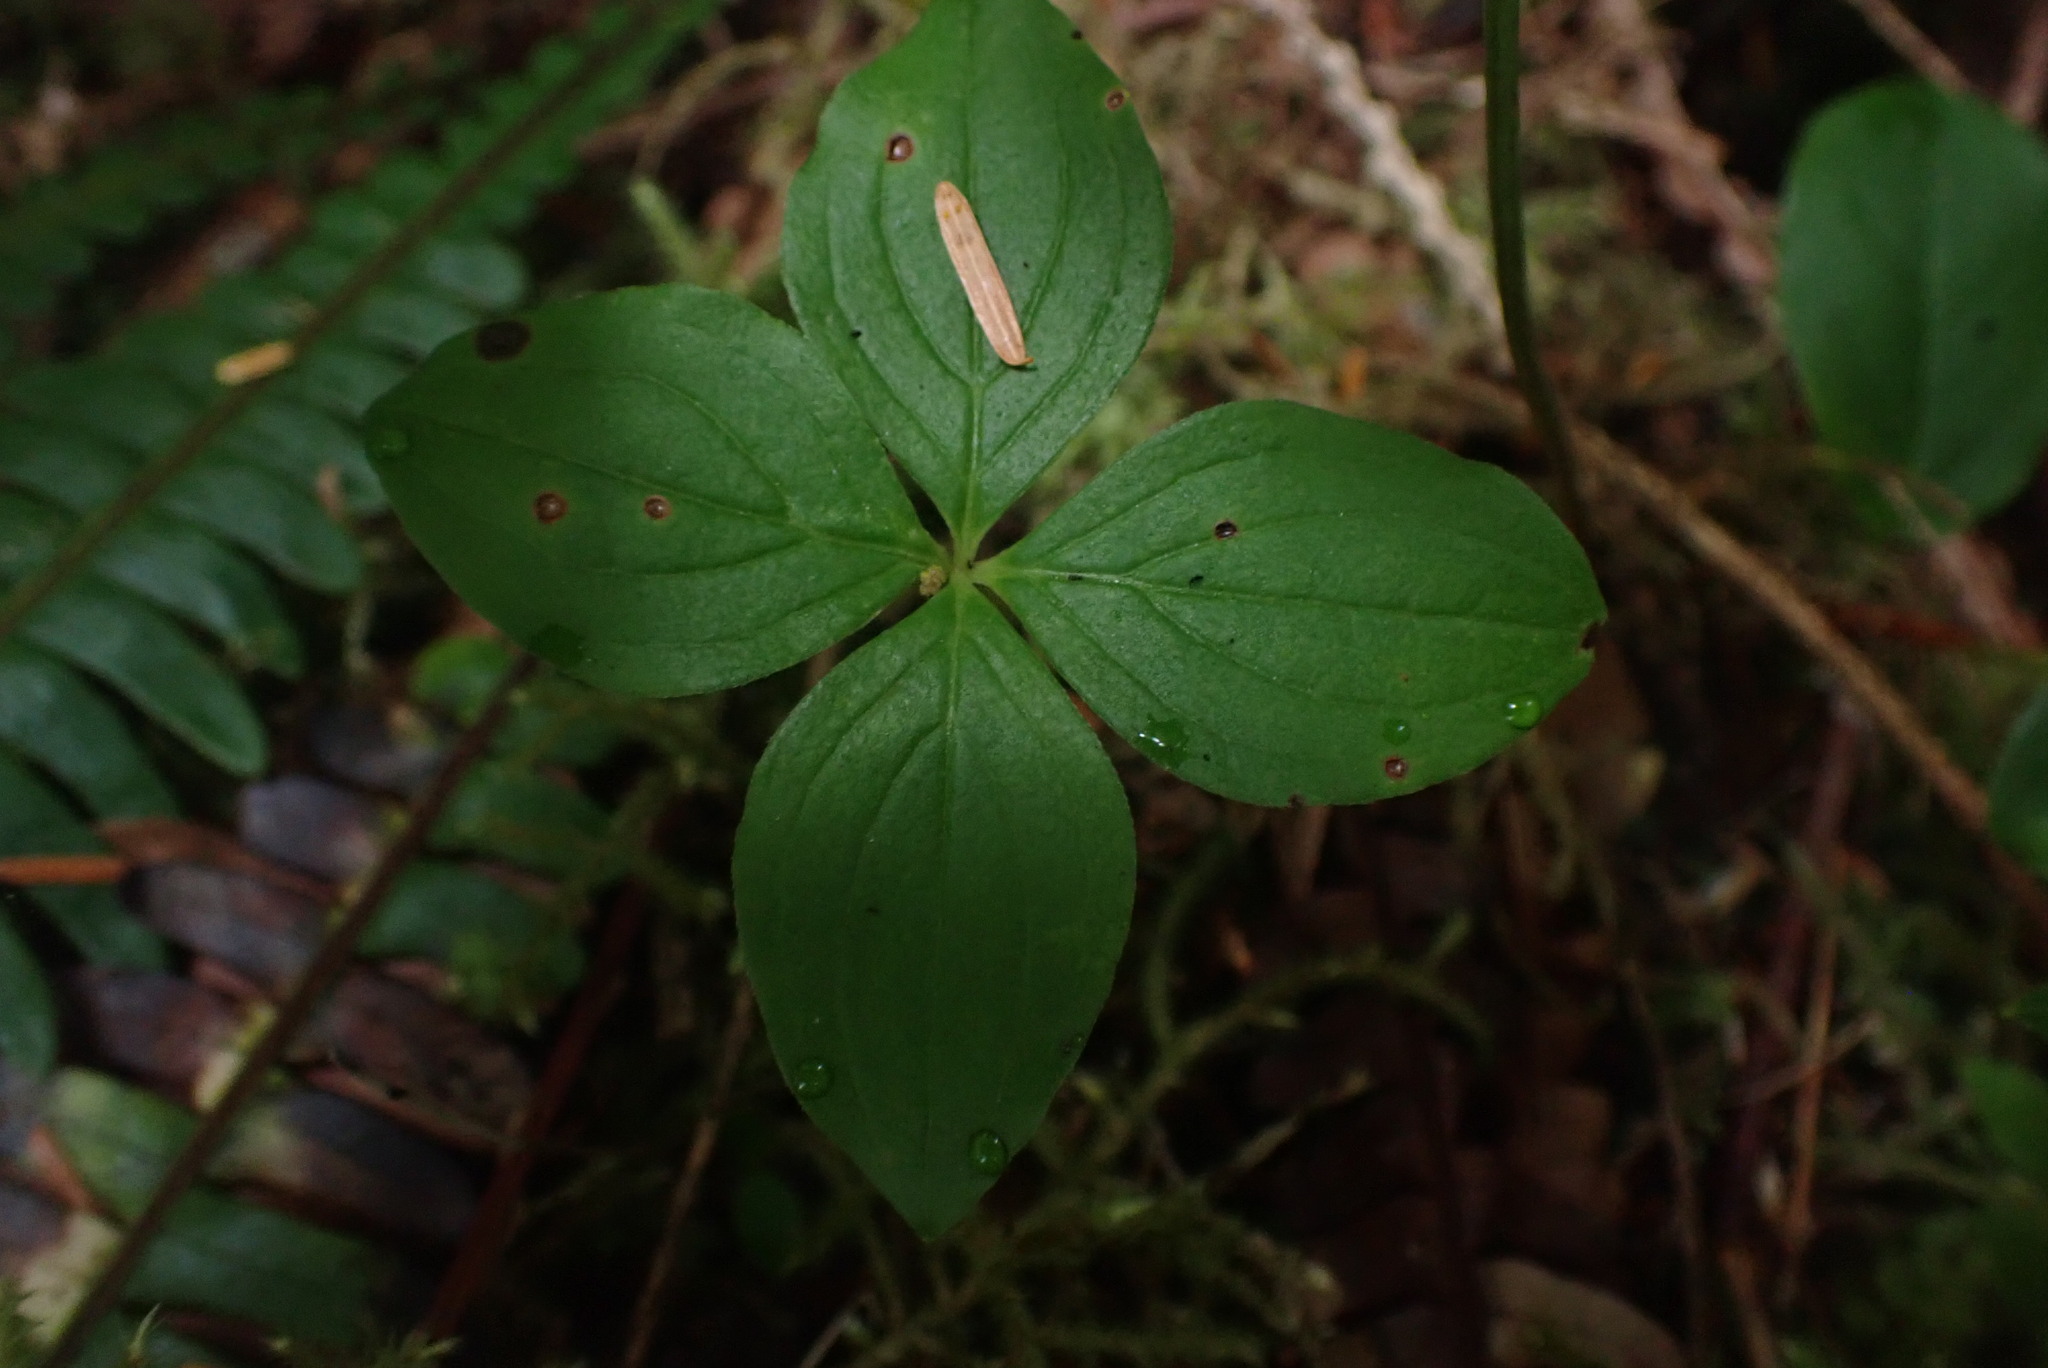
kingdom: Plantae
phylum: Tracheophyta
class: Magnoliopsida
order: Cornales
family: Cornaceae
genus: Cornus
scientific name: Cornus unalaschkensis
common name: Alaska bunchberry
